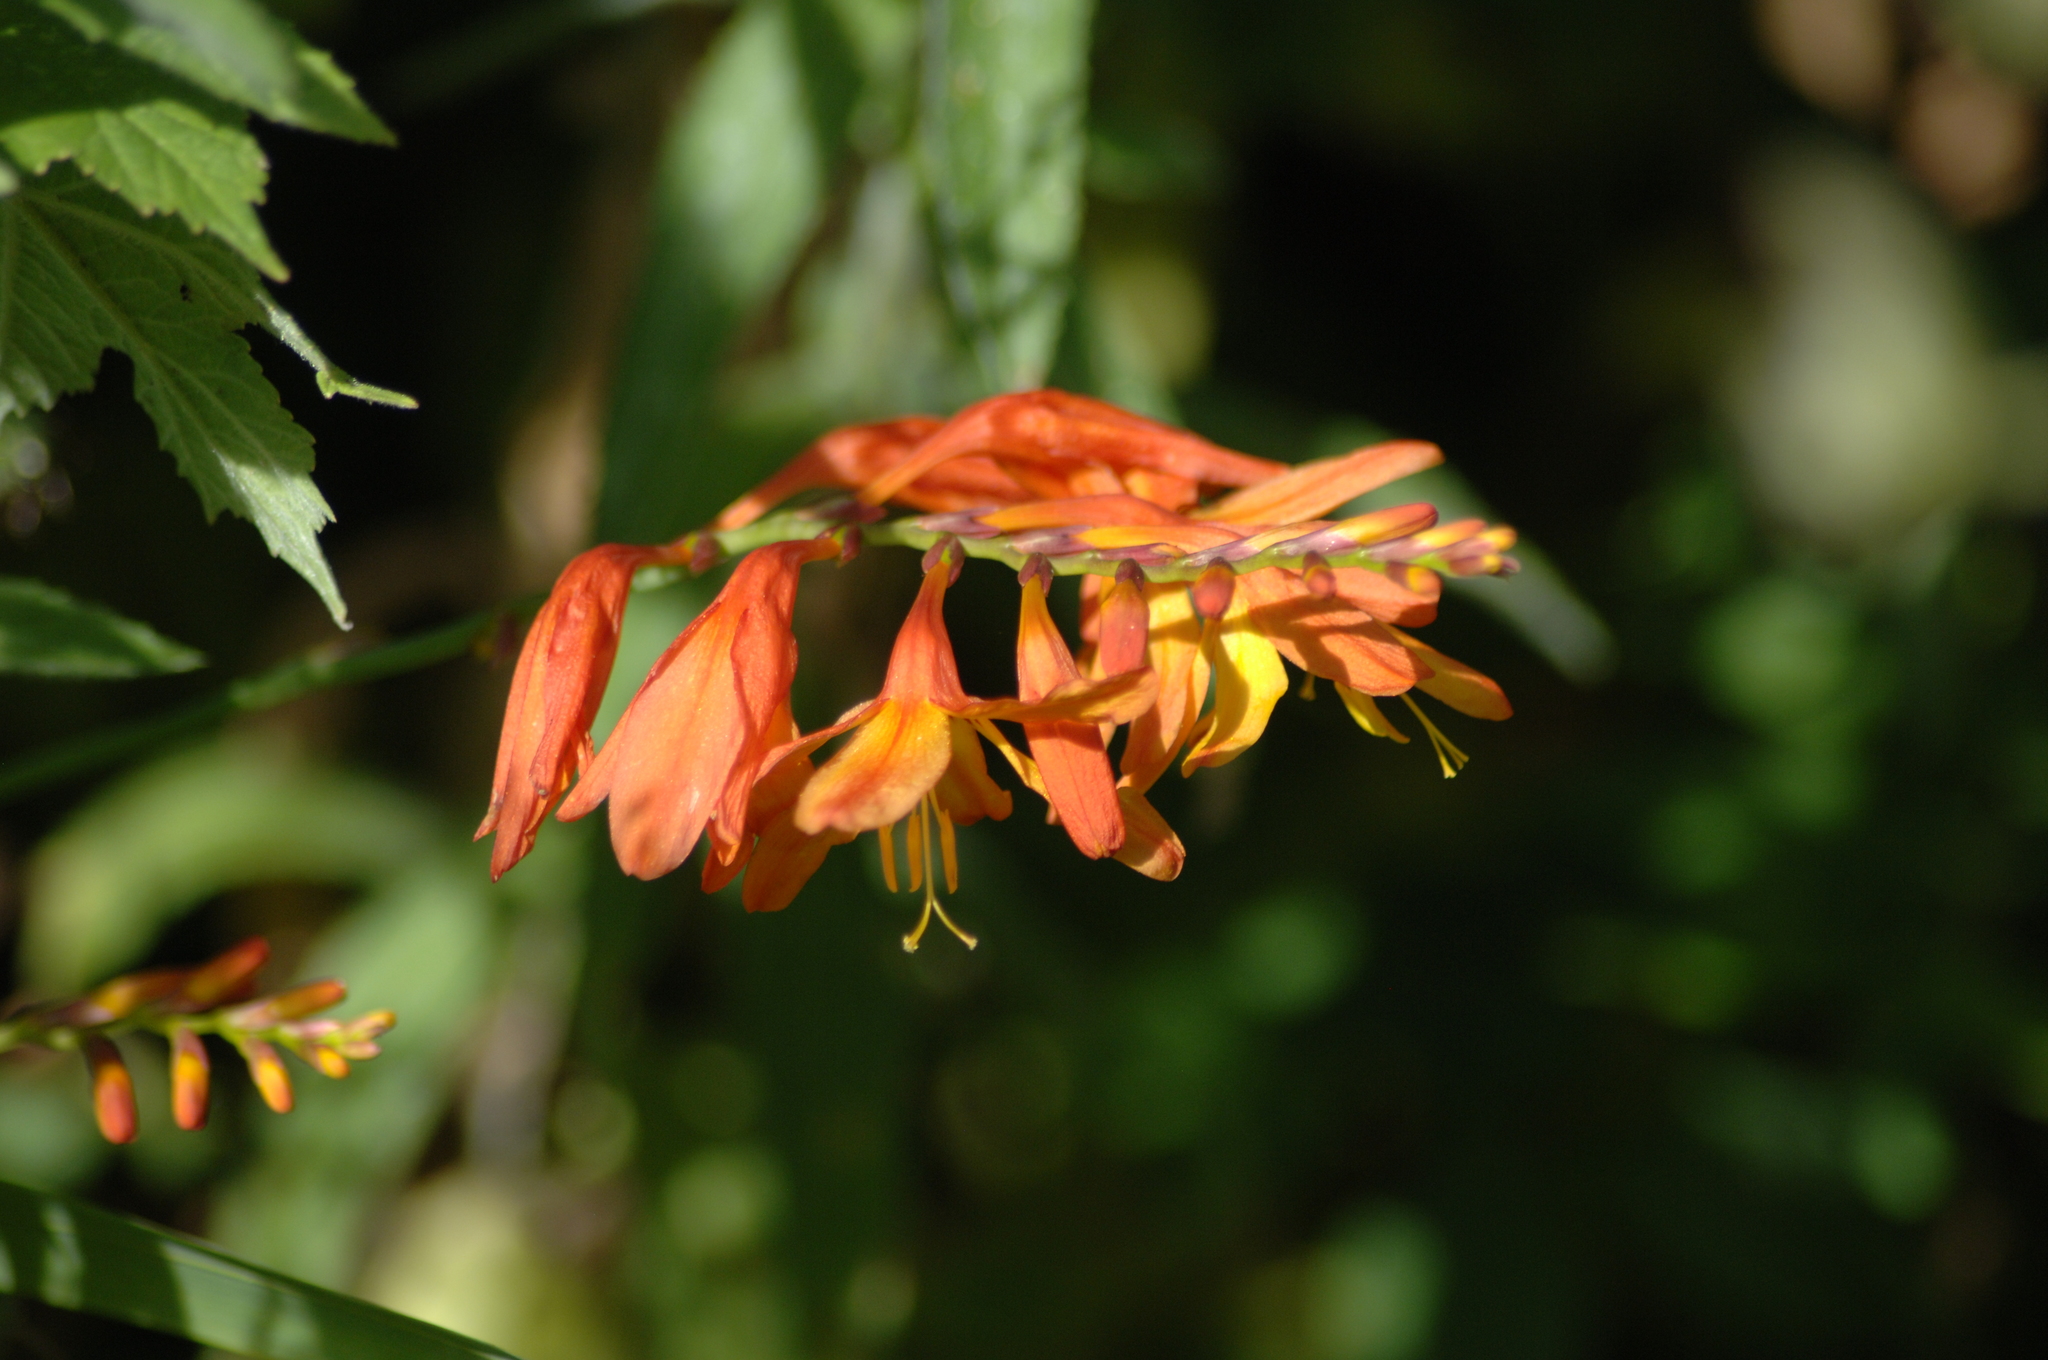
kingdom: Plantae
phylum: Tracheophyta
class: Liliopsida
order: Asparagales
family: Iridaceae
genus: Crocosmia
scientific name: Crocosmia crocosmiiflora
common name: Montbretia
